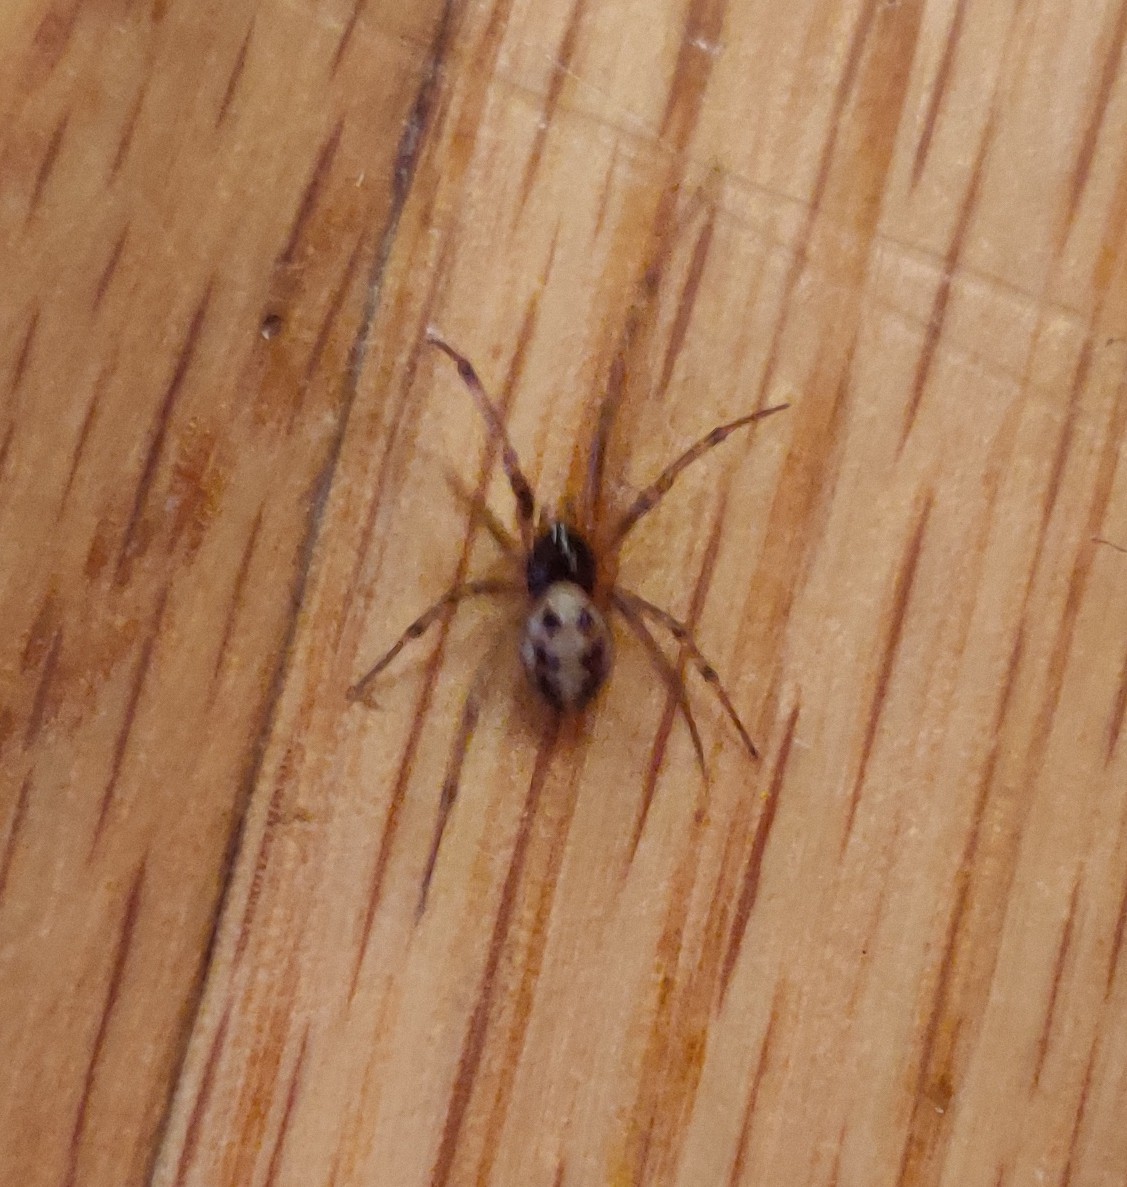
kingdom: Animalia
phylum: Arthropoda
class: Arachnida
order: Araneae
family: Theridiidae
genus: Steatoda
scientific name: Steatoda triangulosa
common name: Triangulate bud spider
